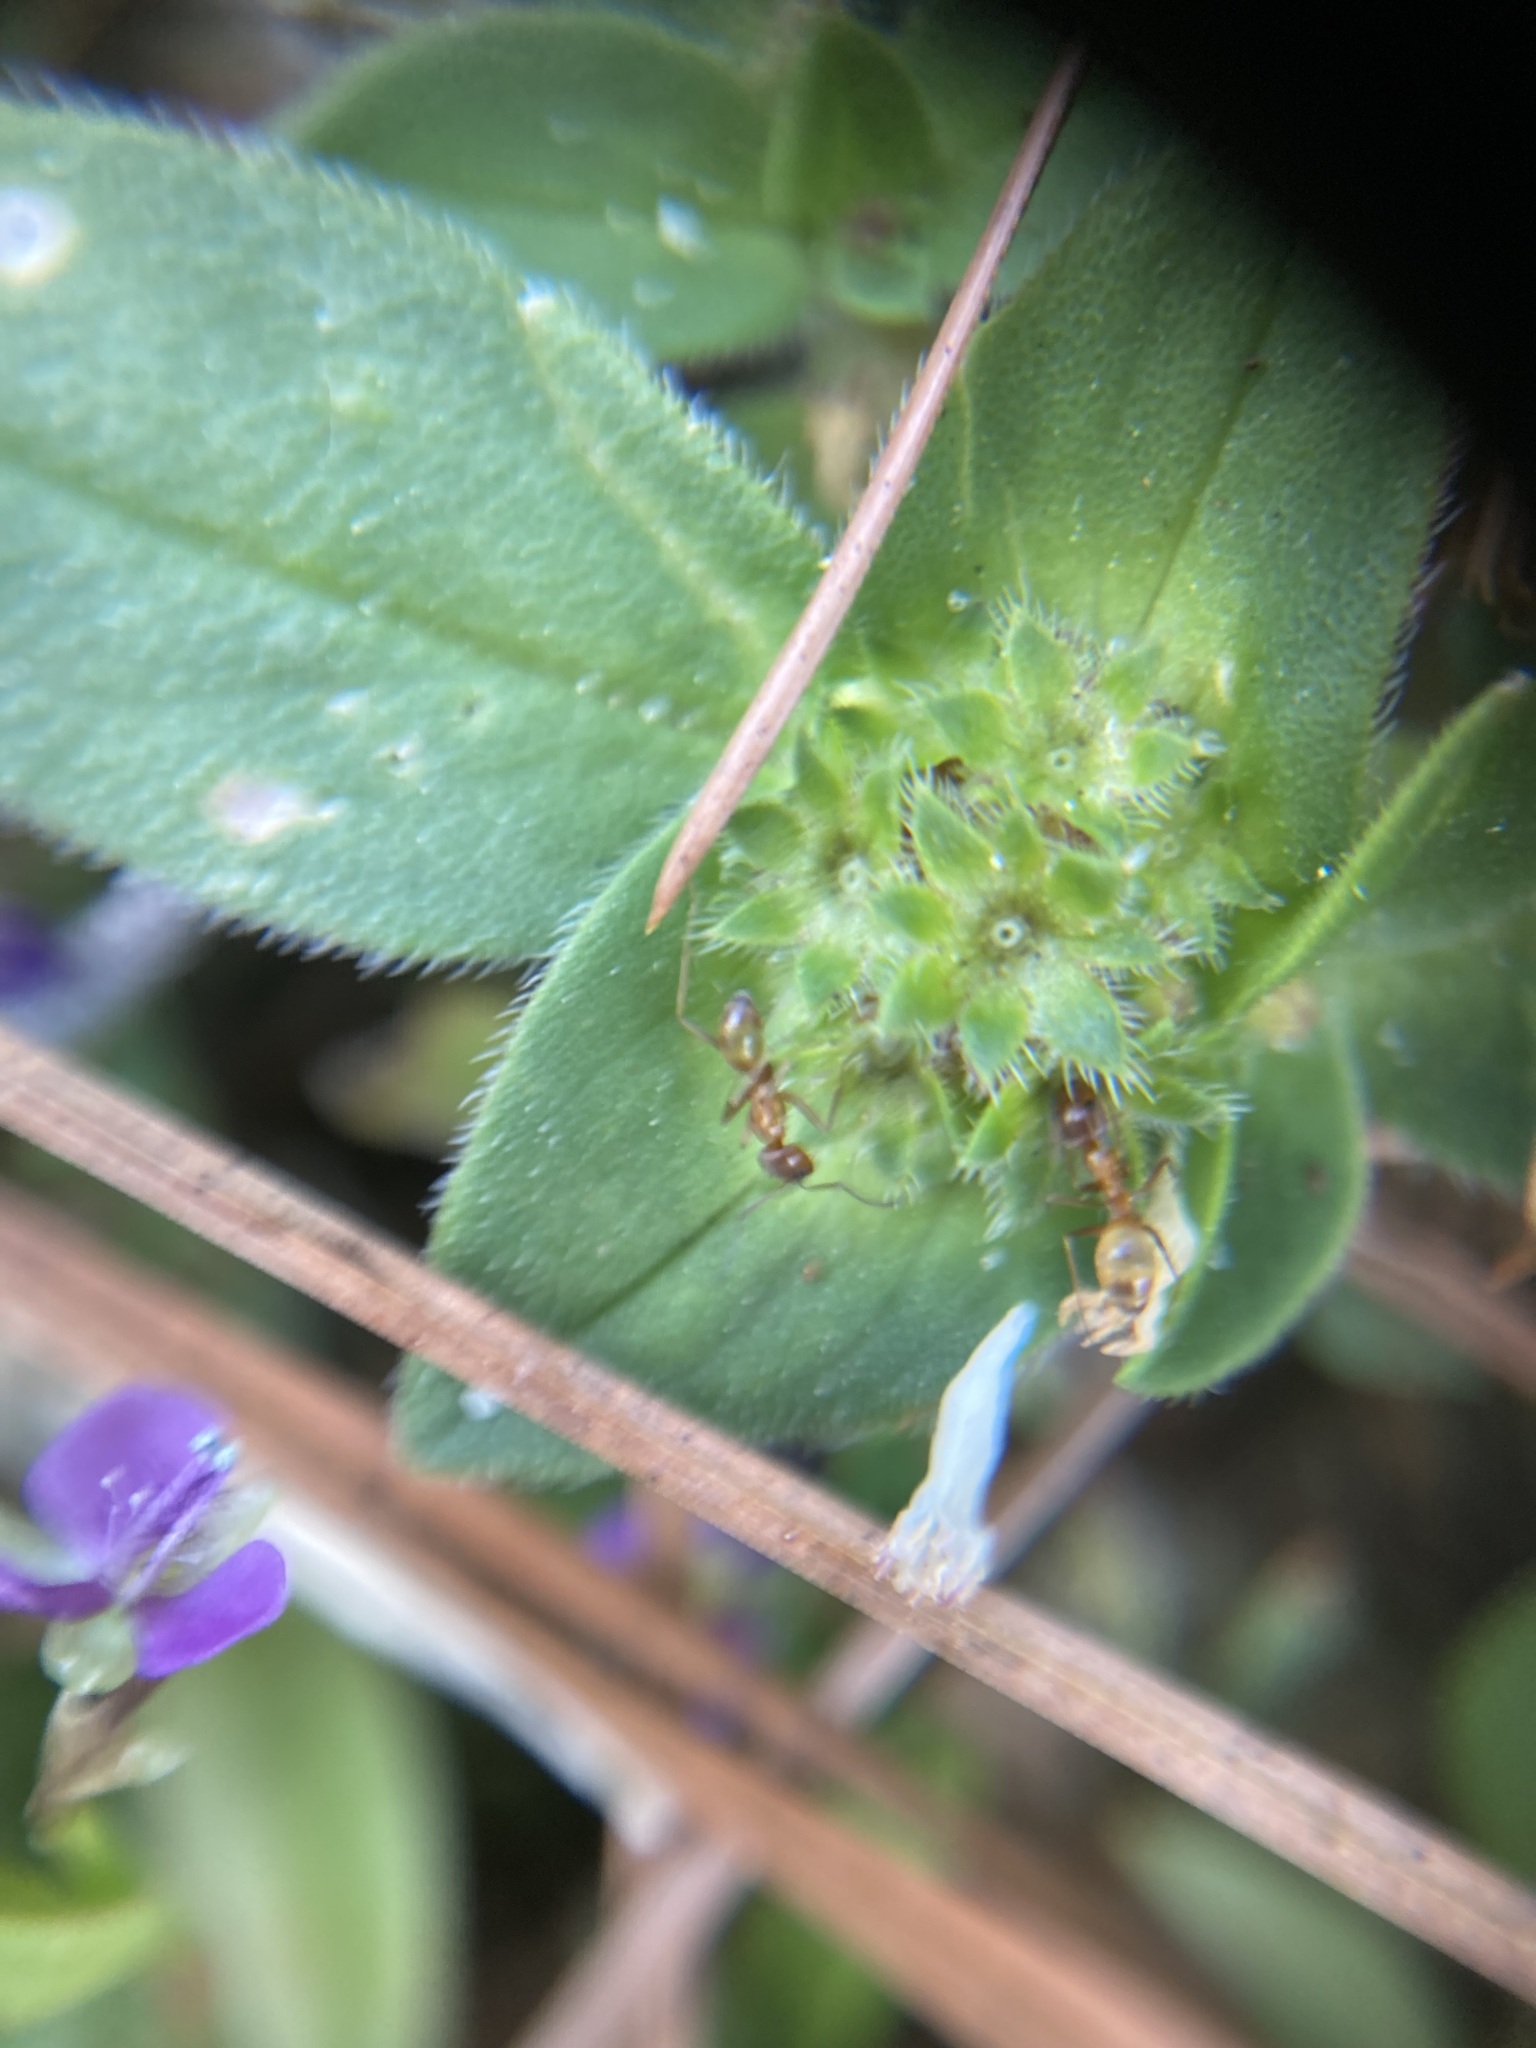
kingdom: Animalia
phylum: Arthropoda
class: Insecta
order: Hymenoptera
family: Formicidae
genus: Dorymyrmex
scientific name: Dorymyrmex bureni
